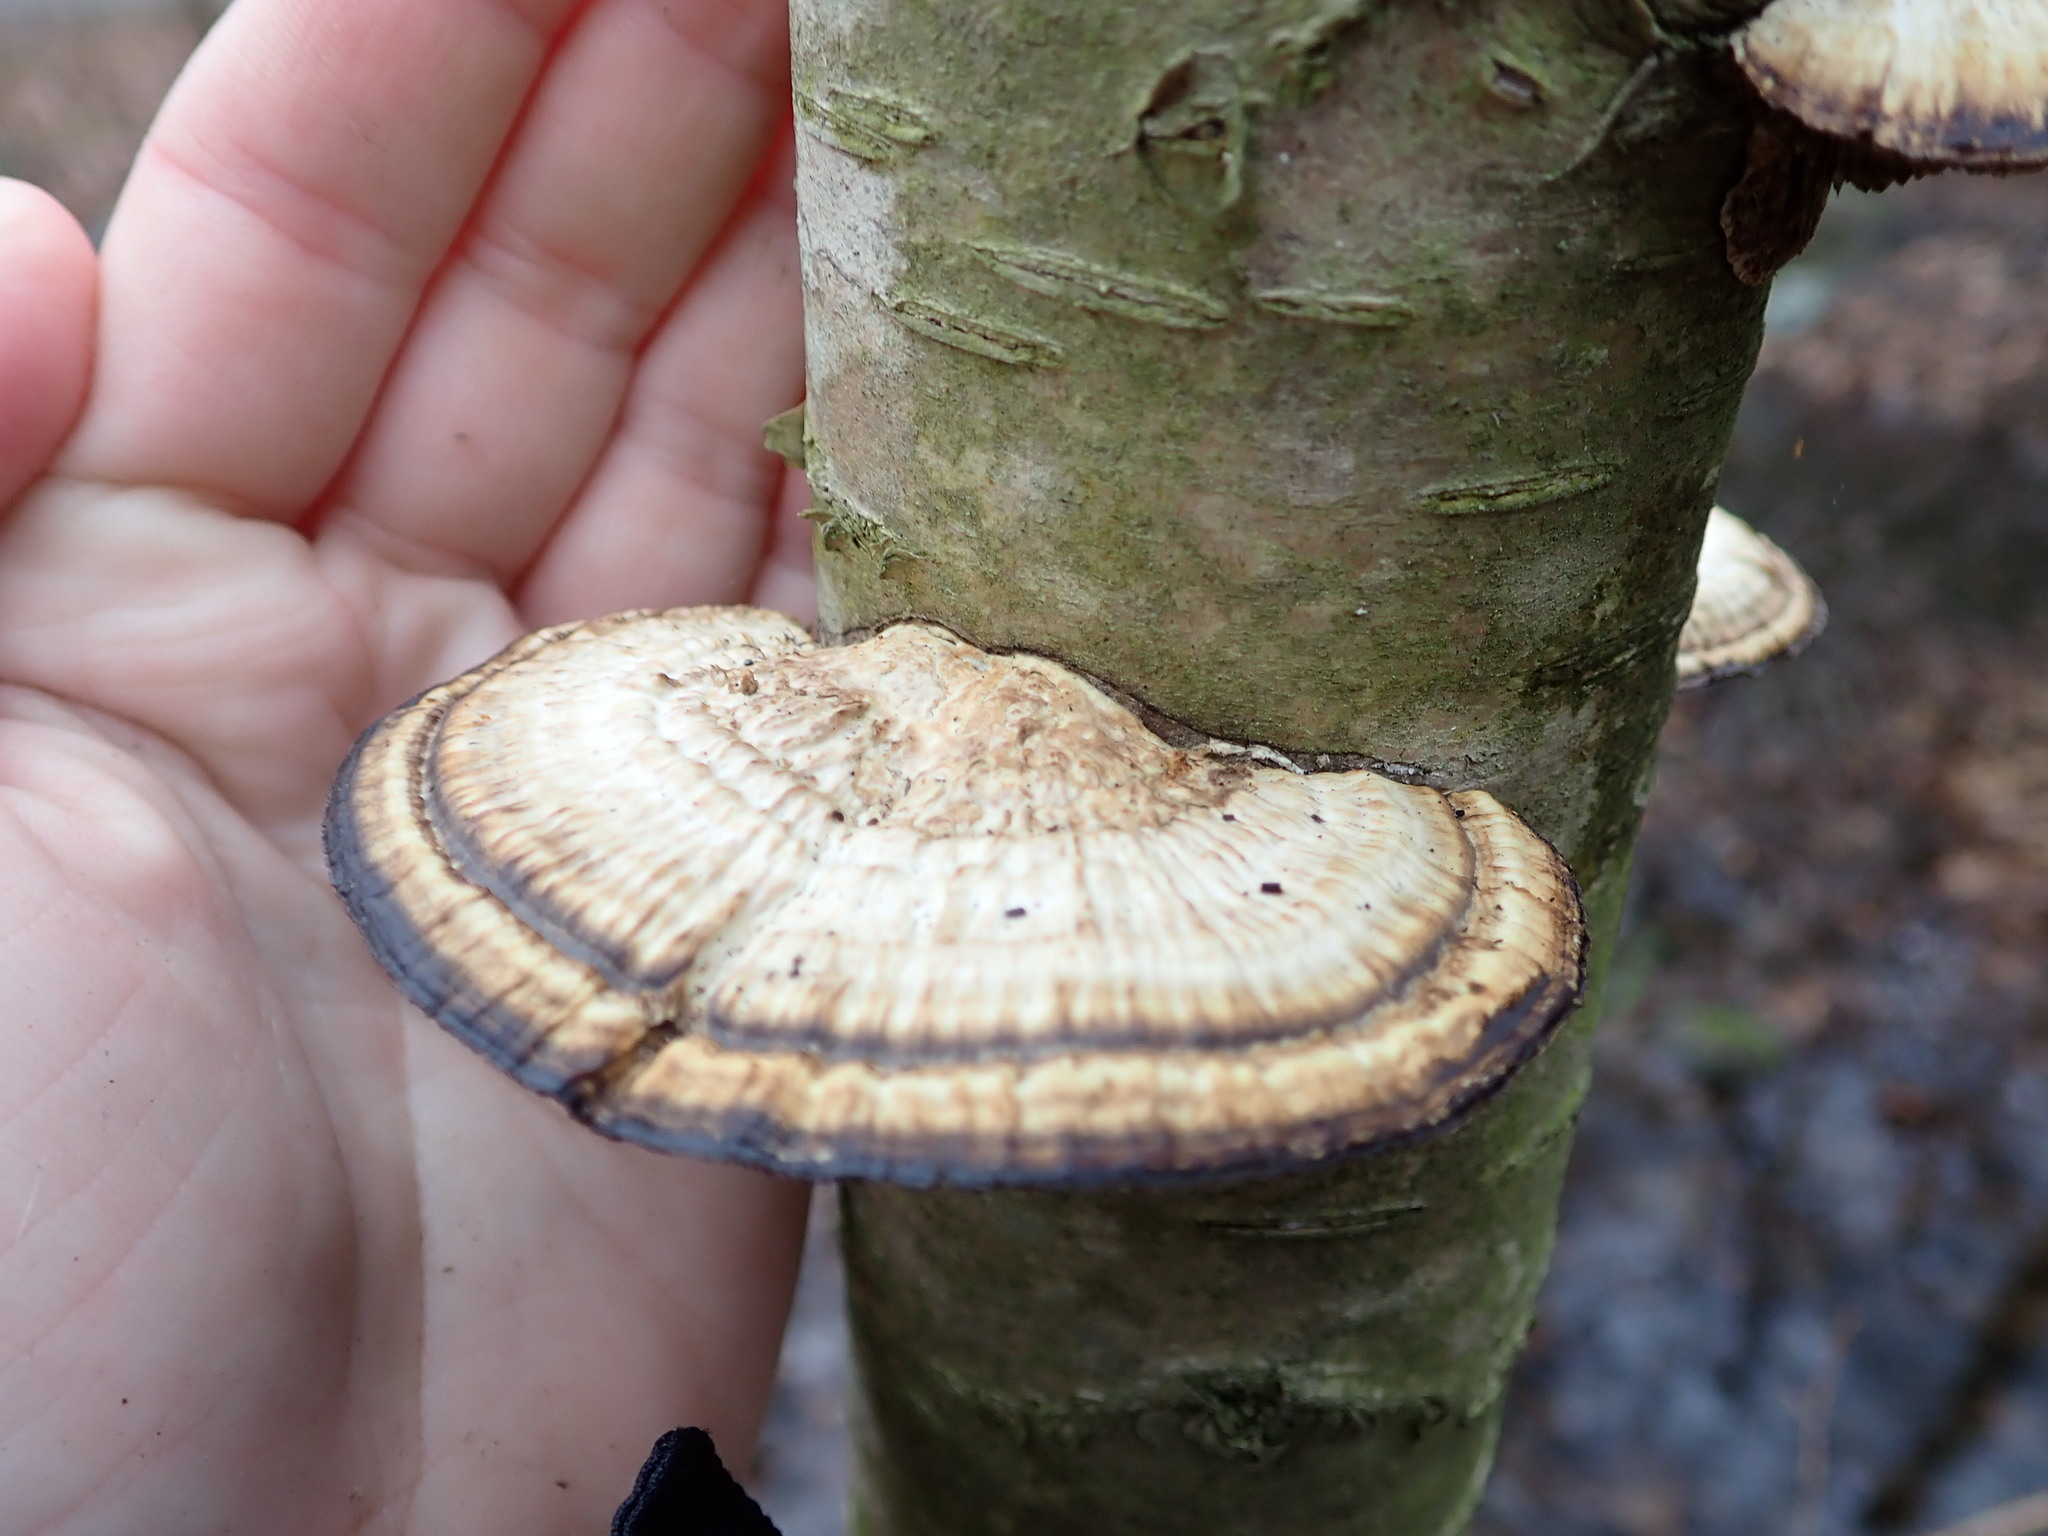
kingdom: Fungi
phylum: Basidiomycota
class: Agaricomycetes
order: Polyporales
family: Polyporaceae
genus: Daedaleopsis
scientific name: Daedaleopsis confragosa
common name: Blushing bracket
